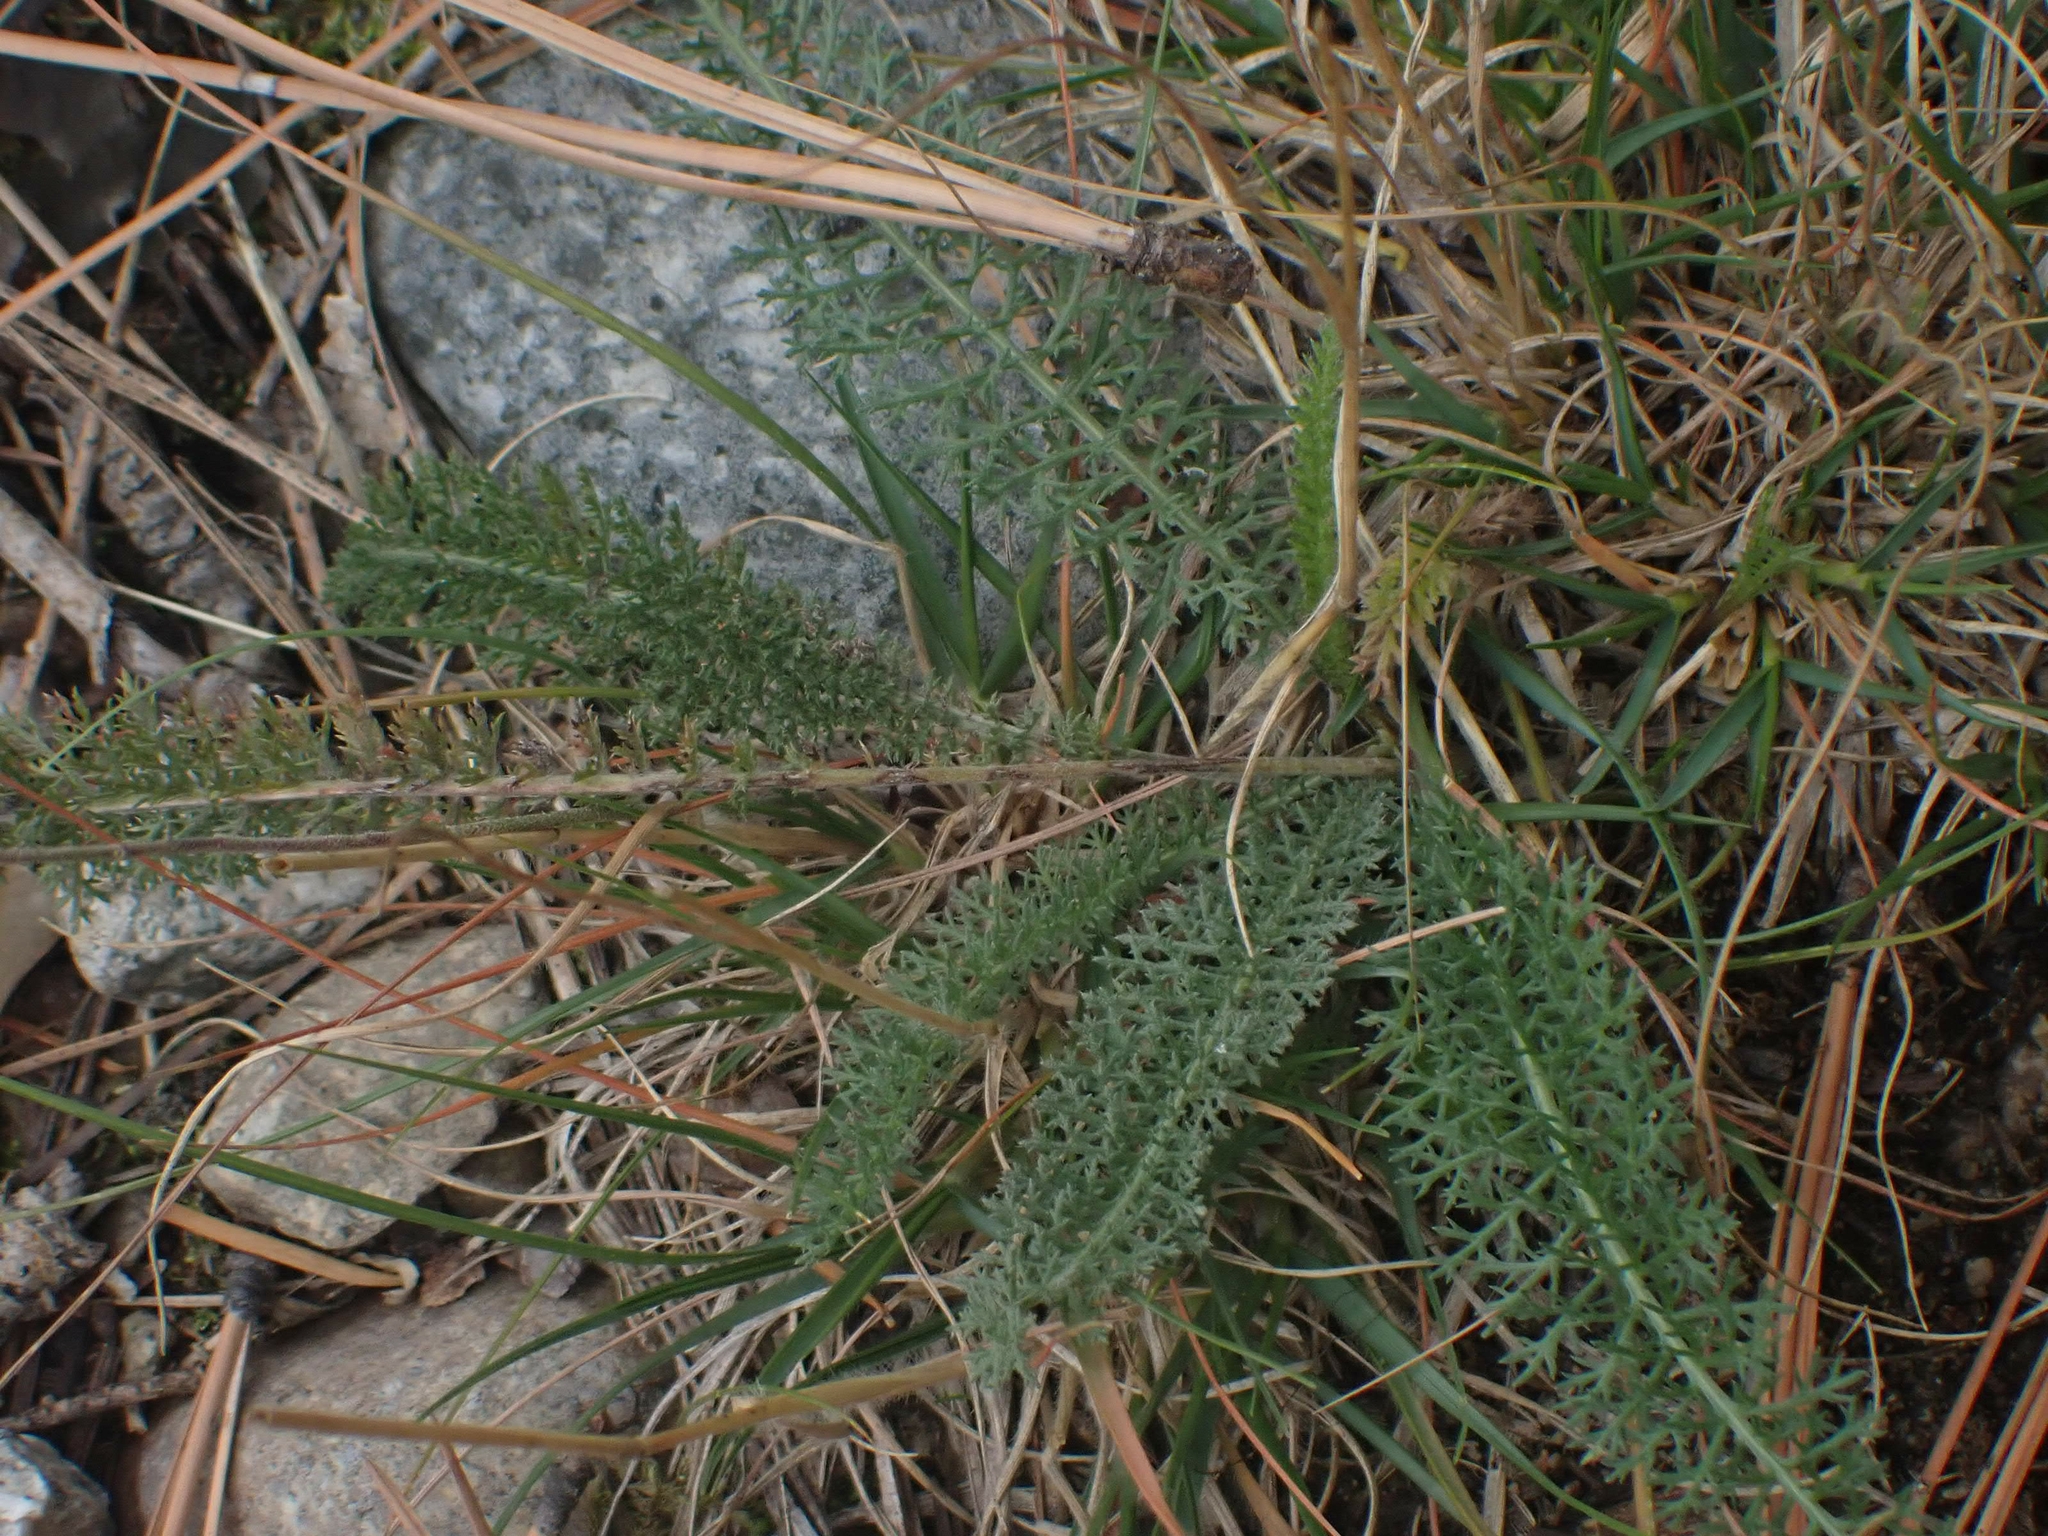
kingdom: Plantae
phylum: Tracheophyta
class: Magnoliopsida
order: Asterales
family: Asteraceae
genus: Achillea
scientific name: Achillea millefolium
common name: Yarrow
